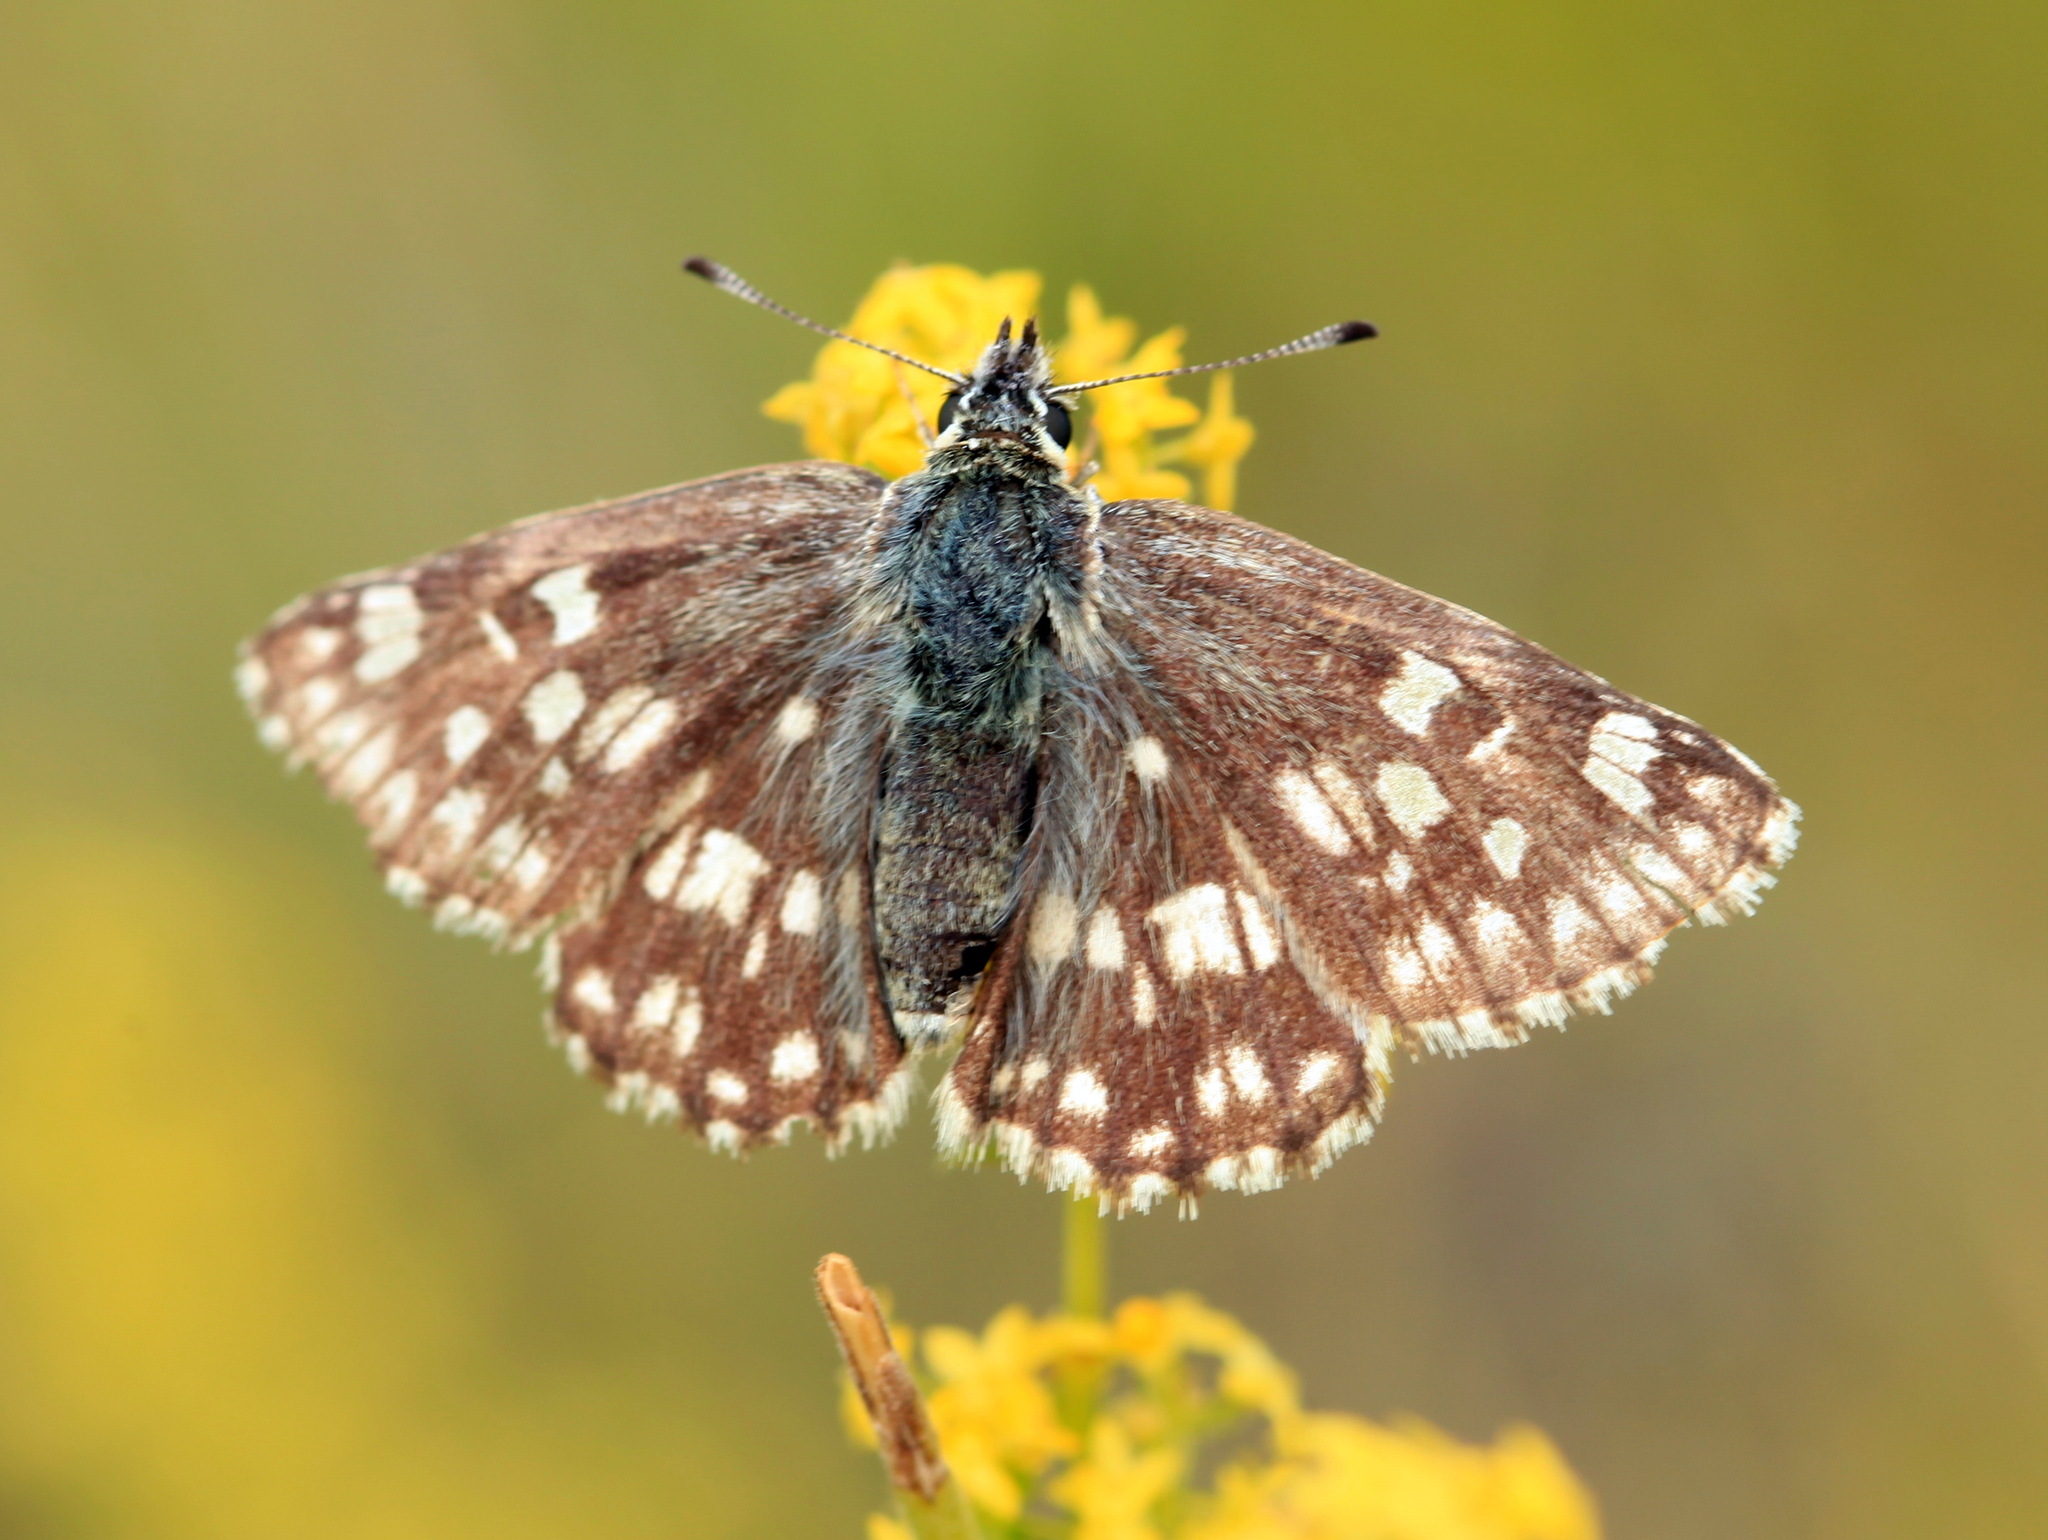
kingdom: Animalia
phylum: Arthropoda
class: Insecta
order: Lepidoptera
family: Hesperiidae
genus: Syrichtus
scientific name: Syrichtus tessellum
